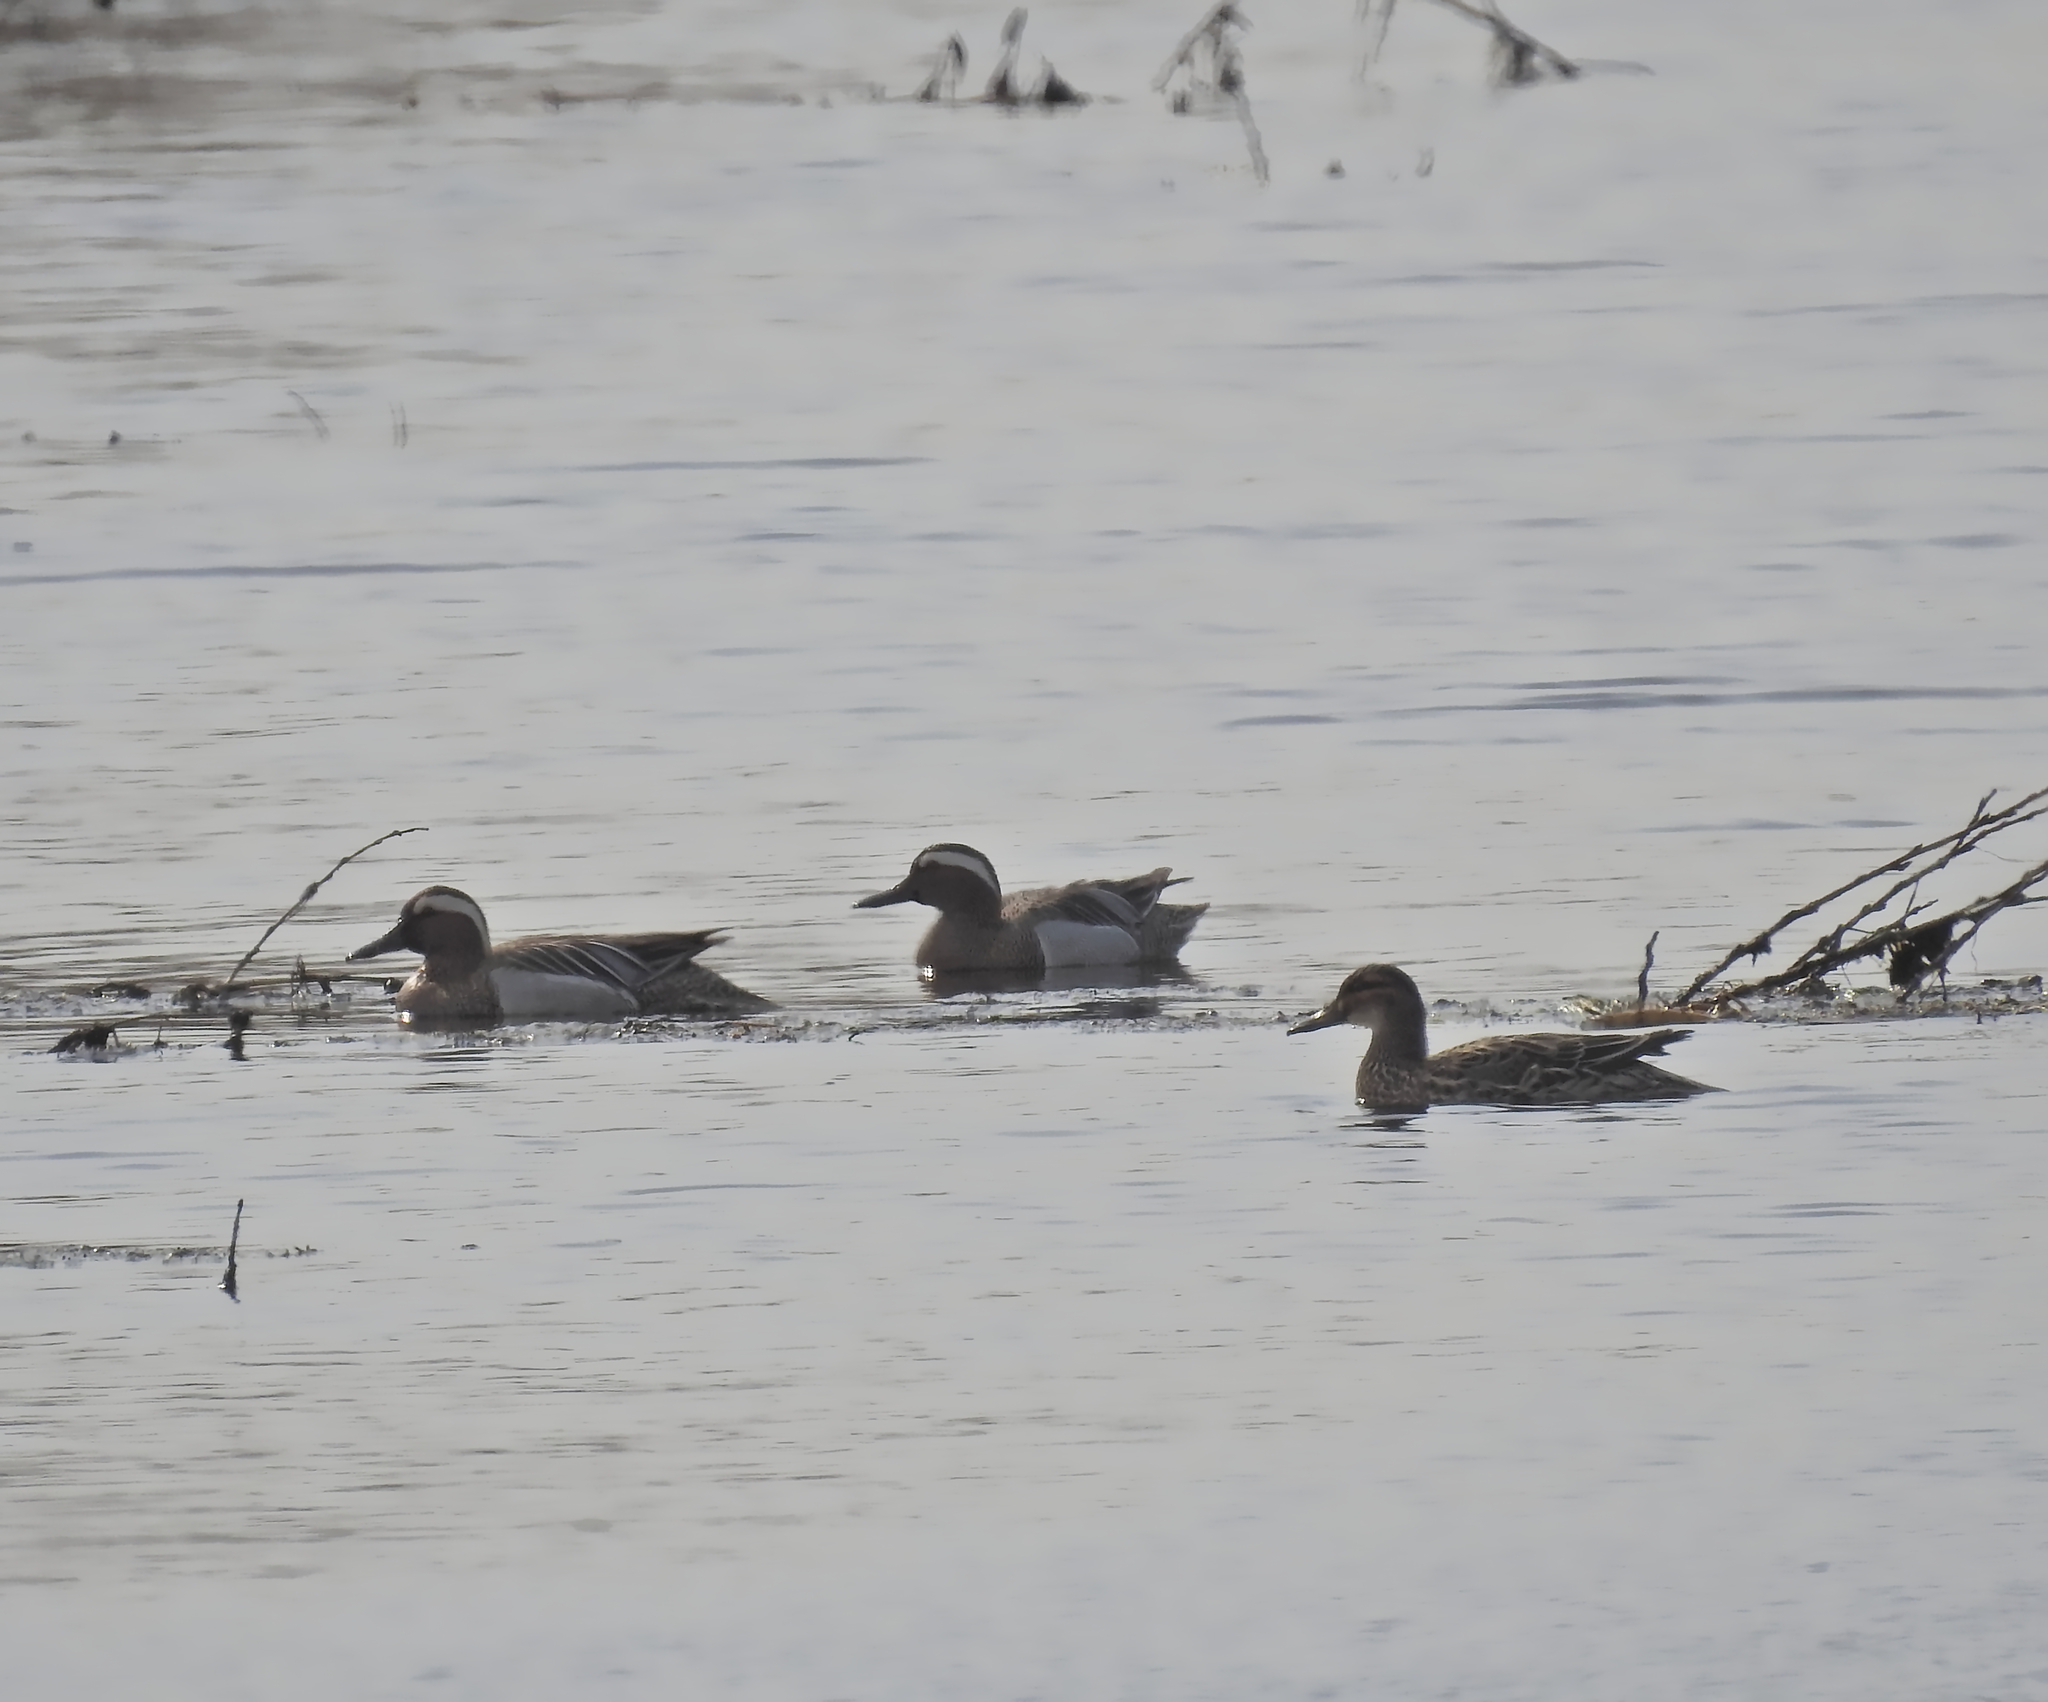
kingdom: Animalia
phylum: Chordata
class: Aves
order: Anseriformes
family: Anatidae
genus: Spatula
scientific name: Spatula querquedula
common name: Garganey
